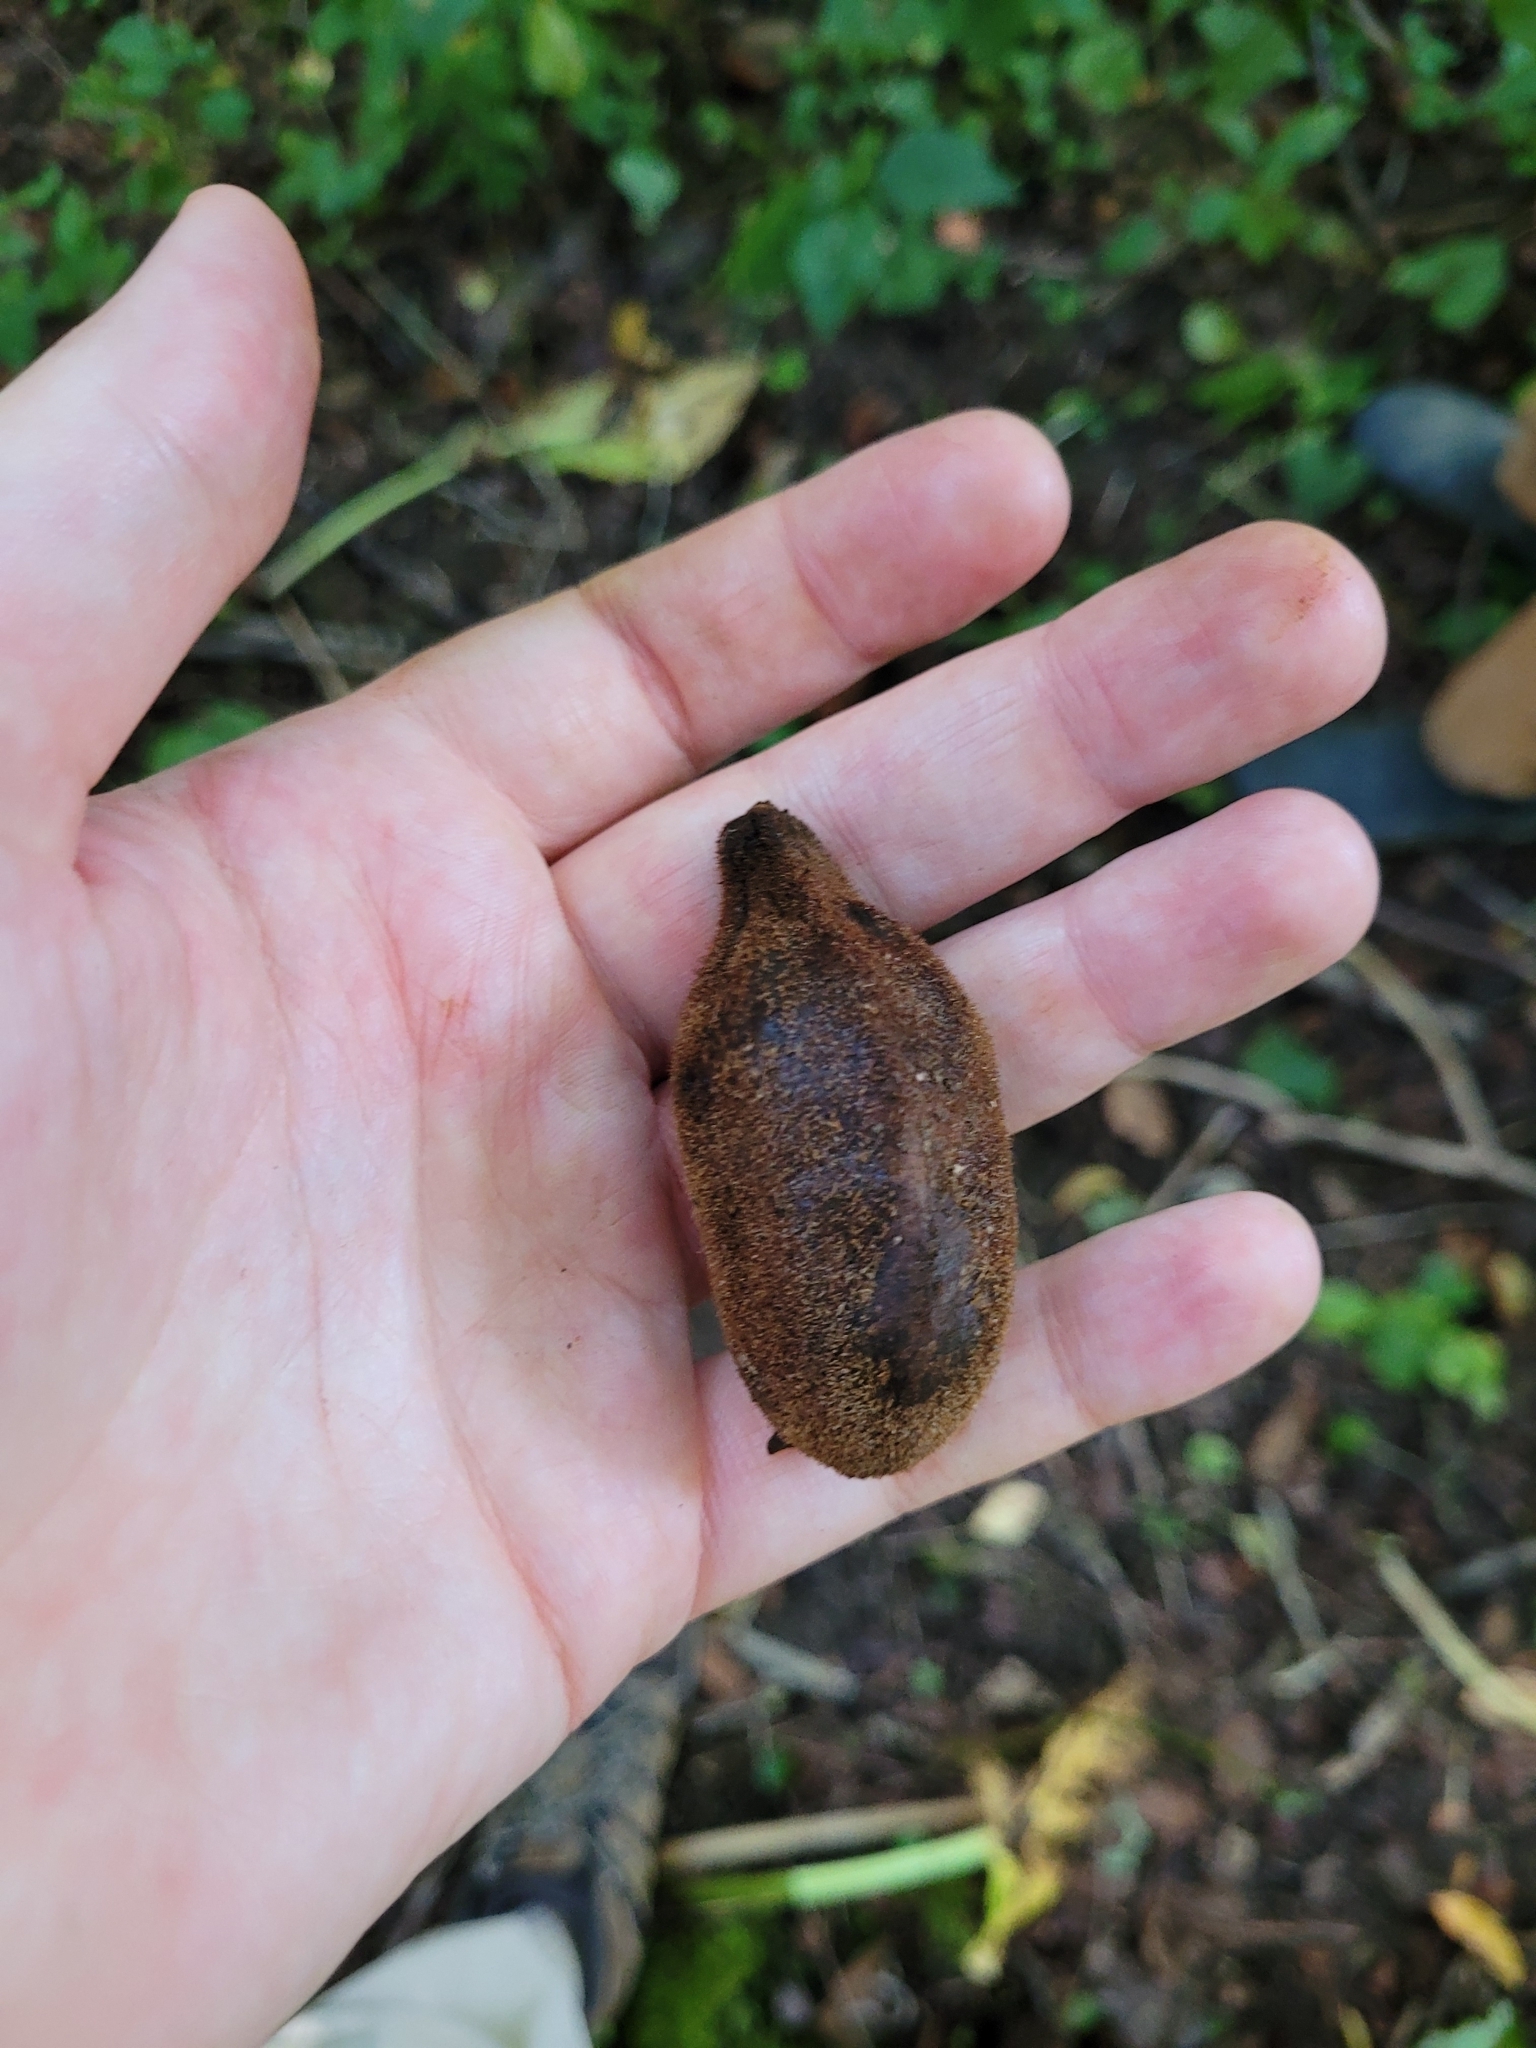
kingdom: Plantae
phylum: Tracheophyta
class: Magnoliopsida
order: Fagales
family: Juglandaceae
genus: Juglans
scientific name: Juglans cinerea
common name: Butternut
